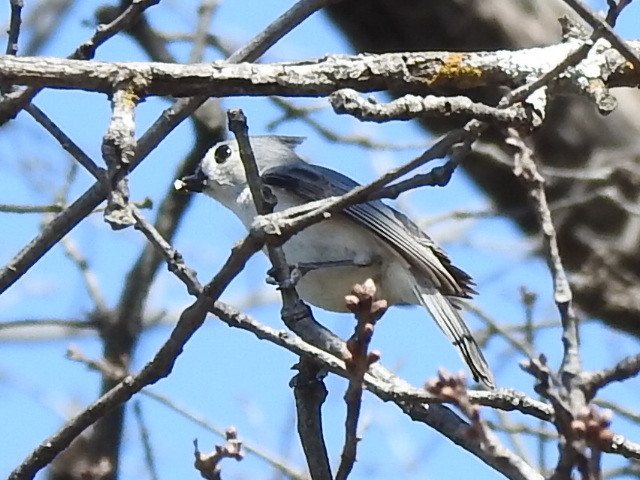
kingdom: Animalia
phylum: Chordata
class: Aves
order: Passeriformes
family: Paridae
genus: Baeolophus
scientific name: Baeolophus bicolor
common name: Tufted titmouse
